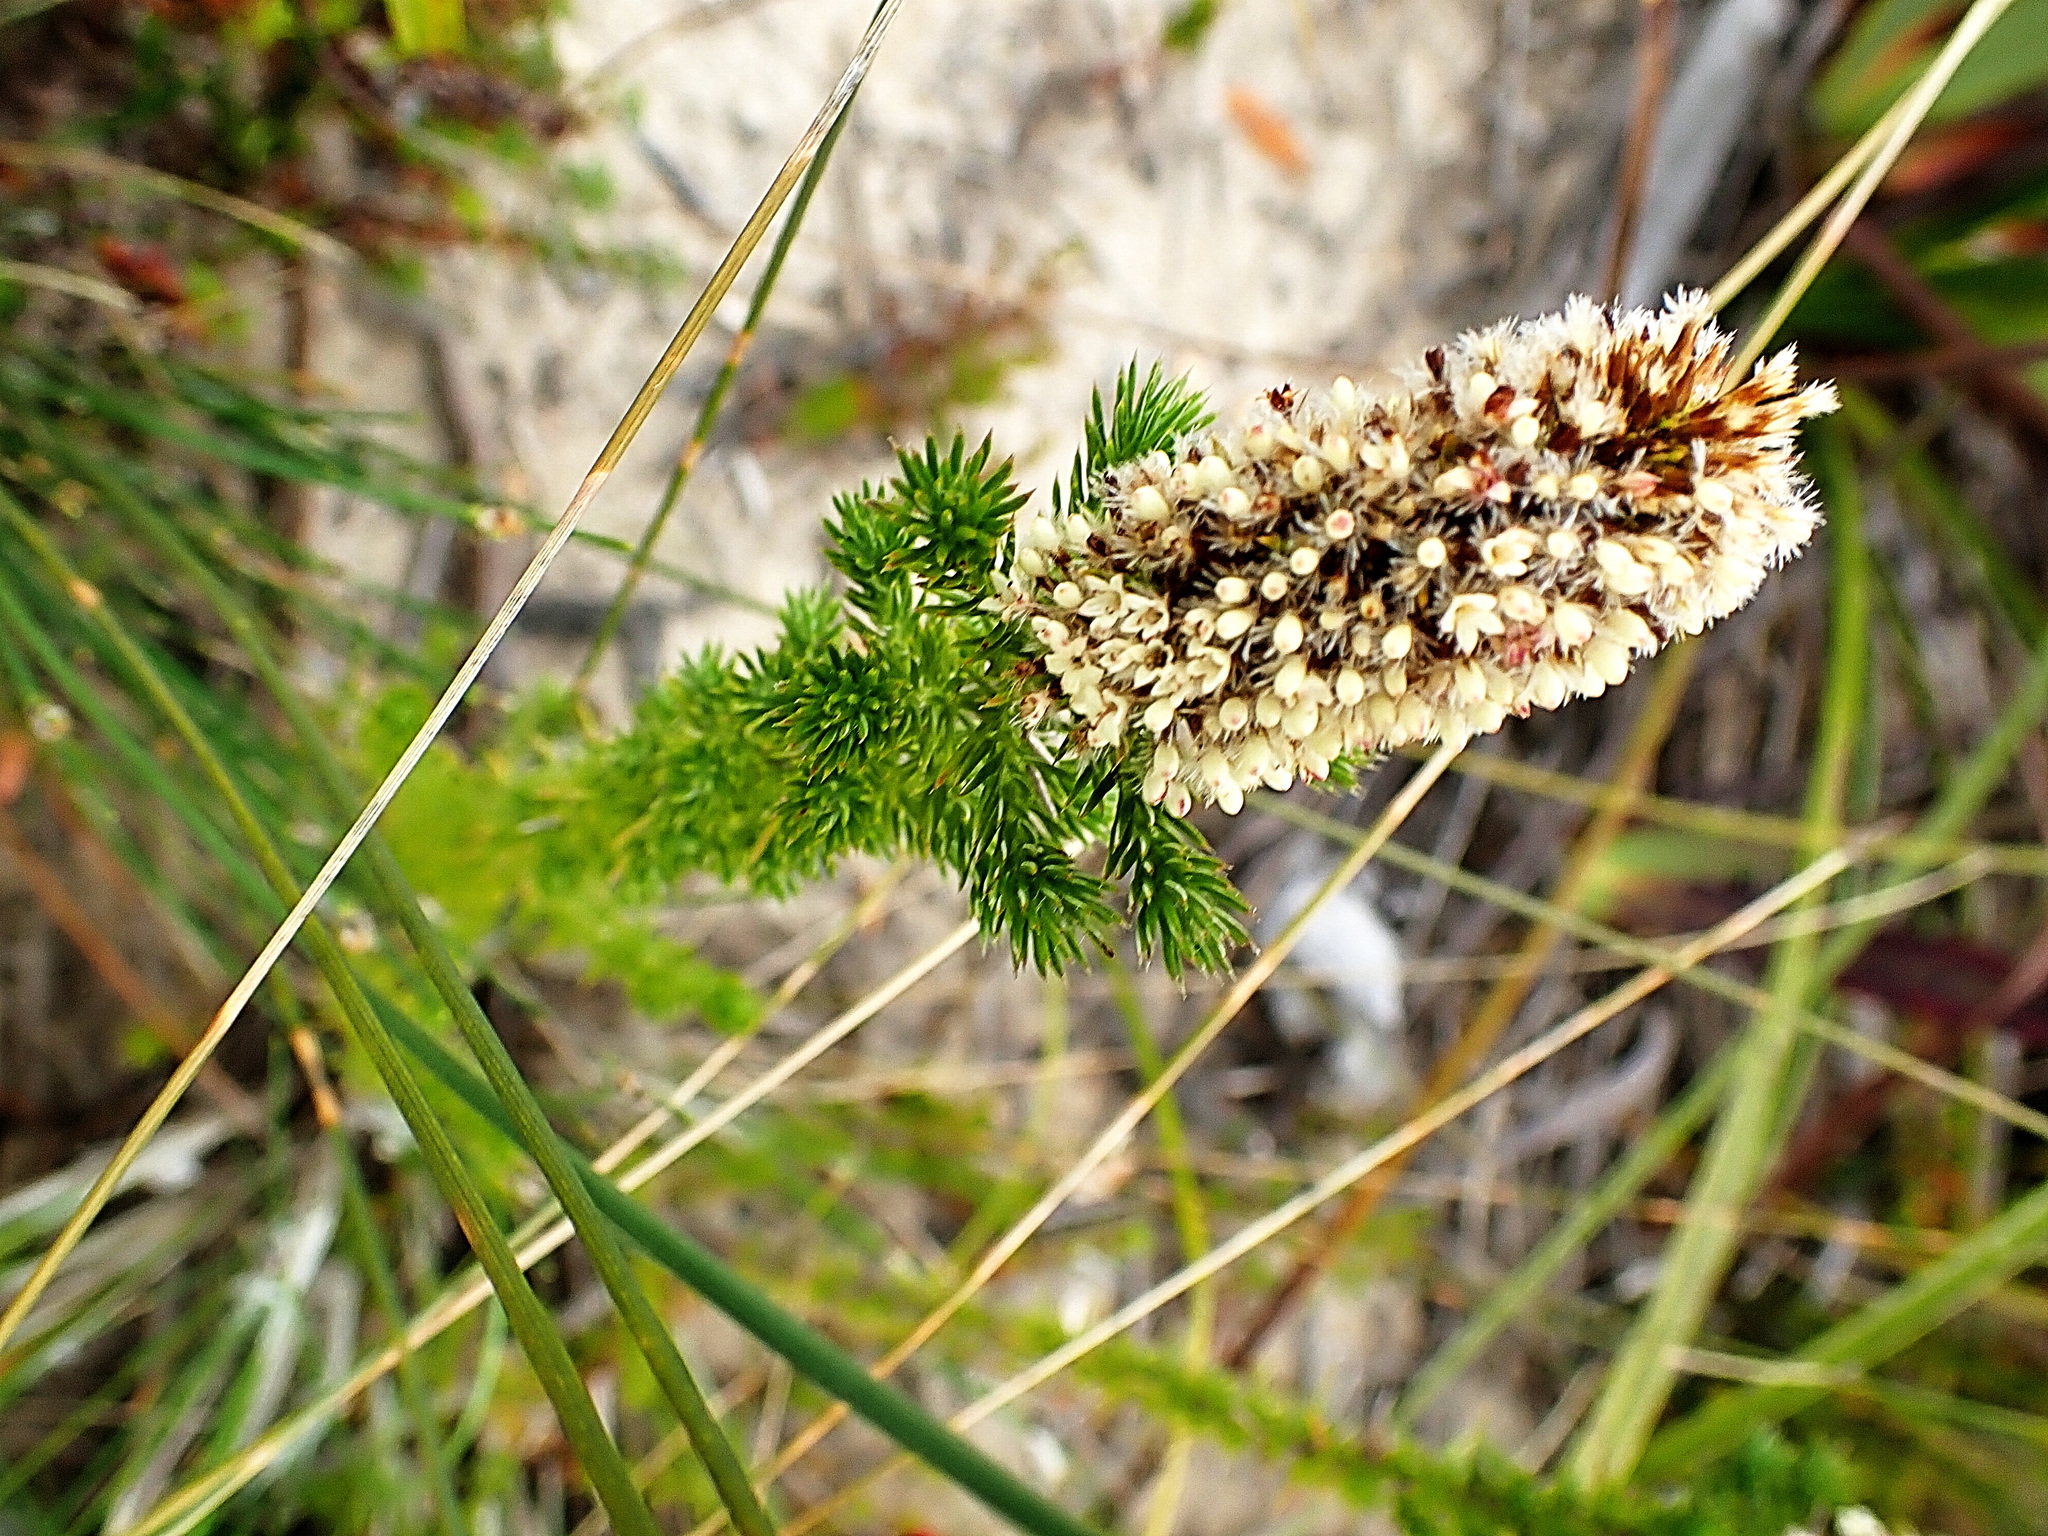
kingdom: Plantae
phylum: Tracheophyta
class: Magnoliopsida
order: Asterales
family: Asteraceae
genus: Stoebe
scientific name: Stoebe alopecuroides
